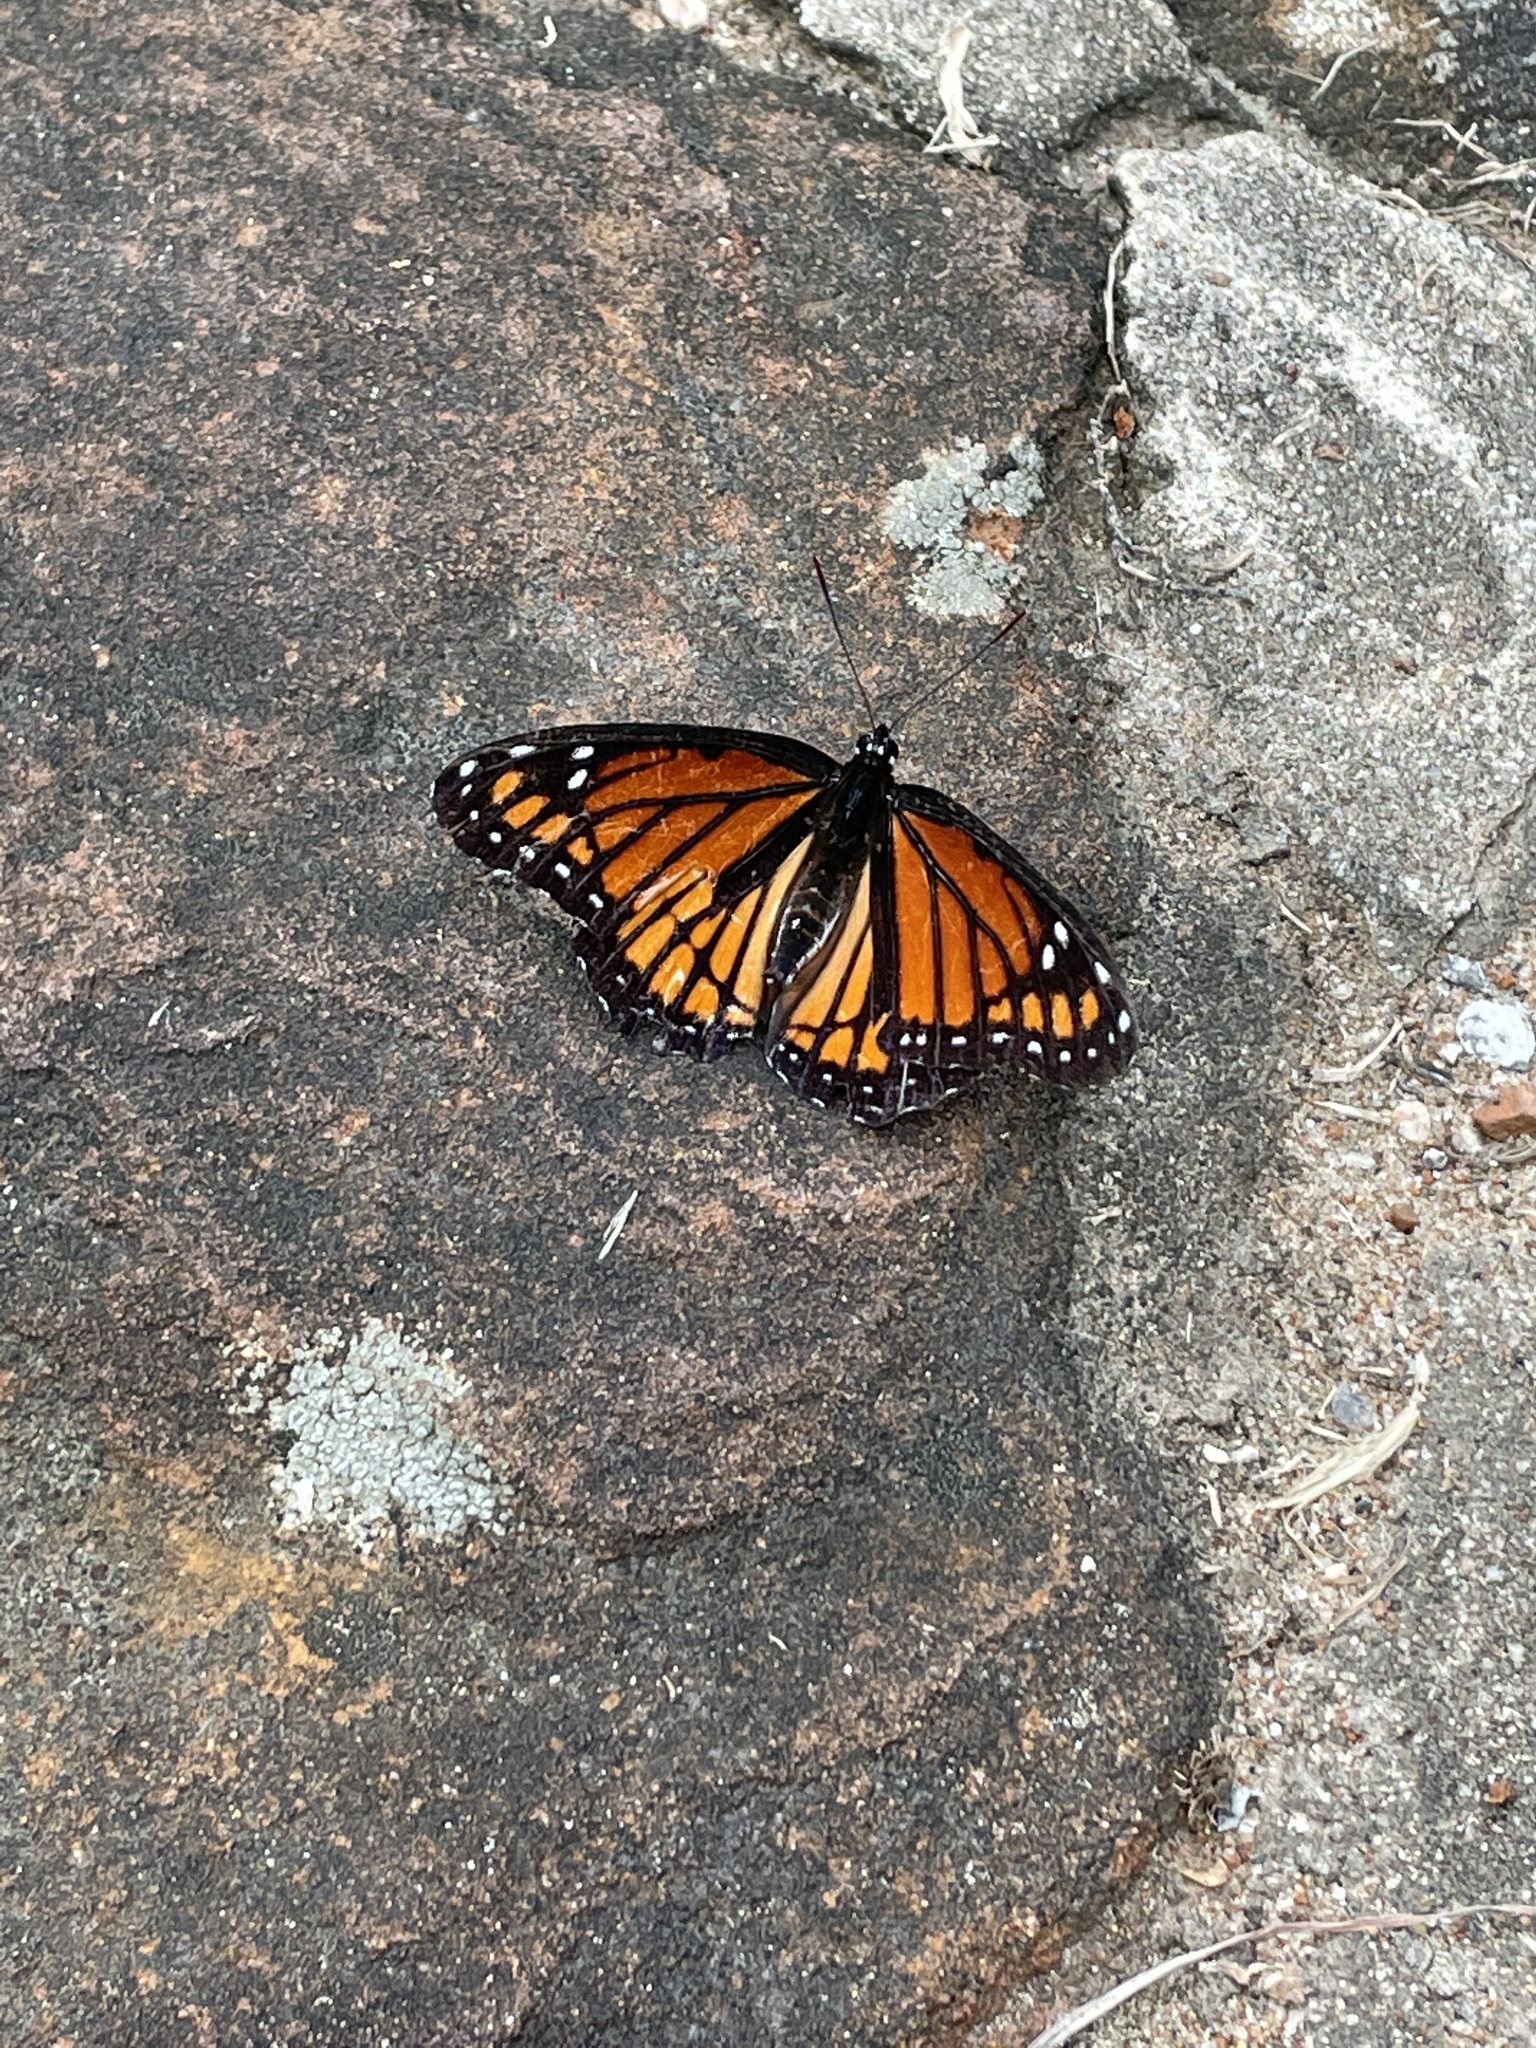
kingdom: Animalia
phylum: Arthropoda
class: Insecta
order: Lepidoptera
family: Nymphalidae
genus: Limenitis
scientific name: Limenitis archippus
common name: Viceroy
